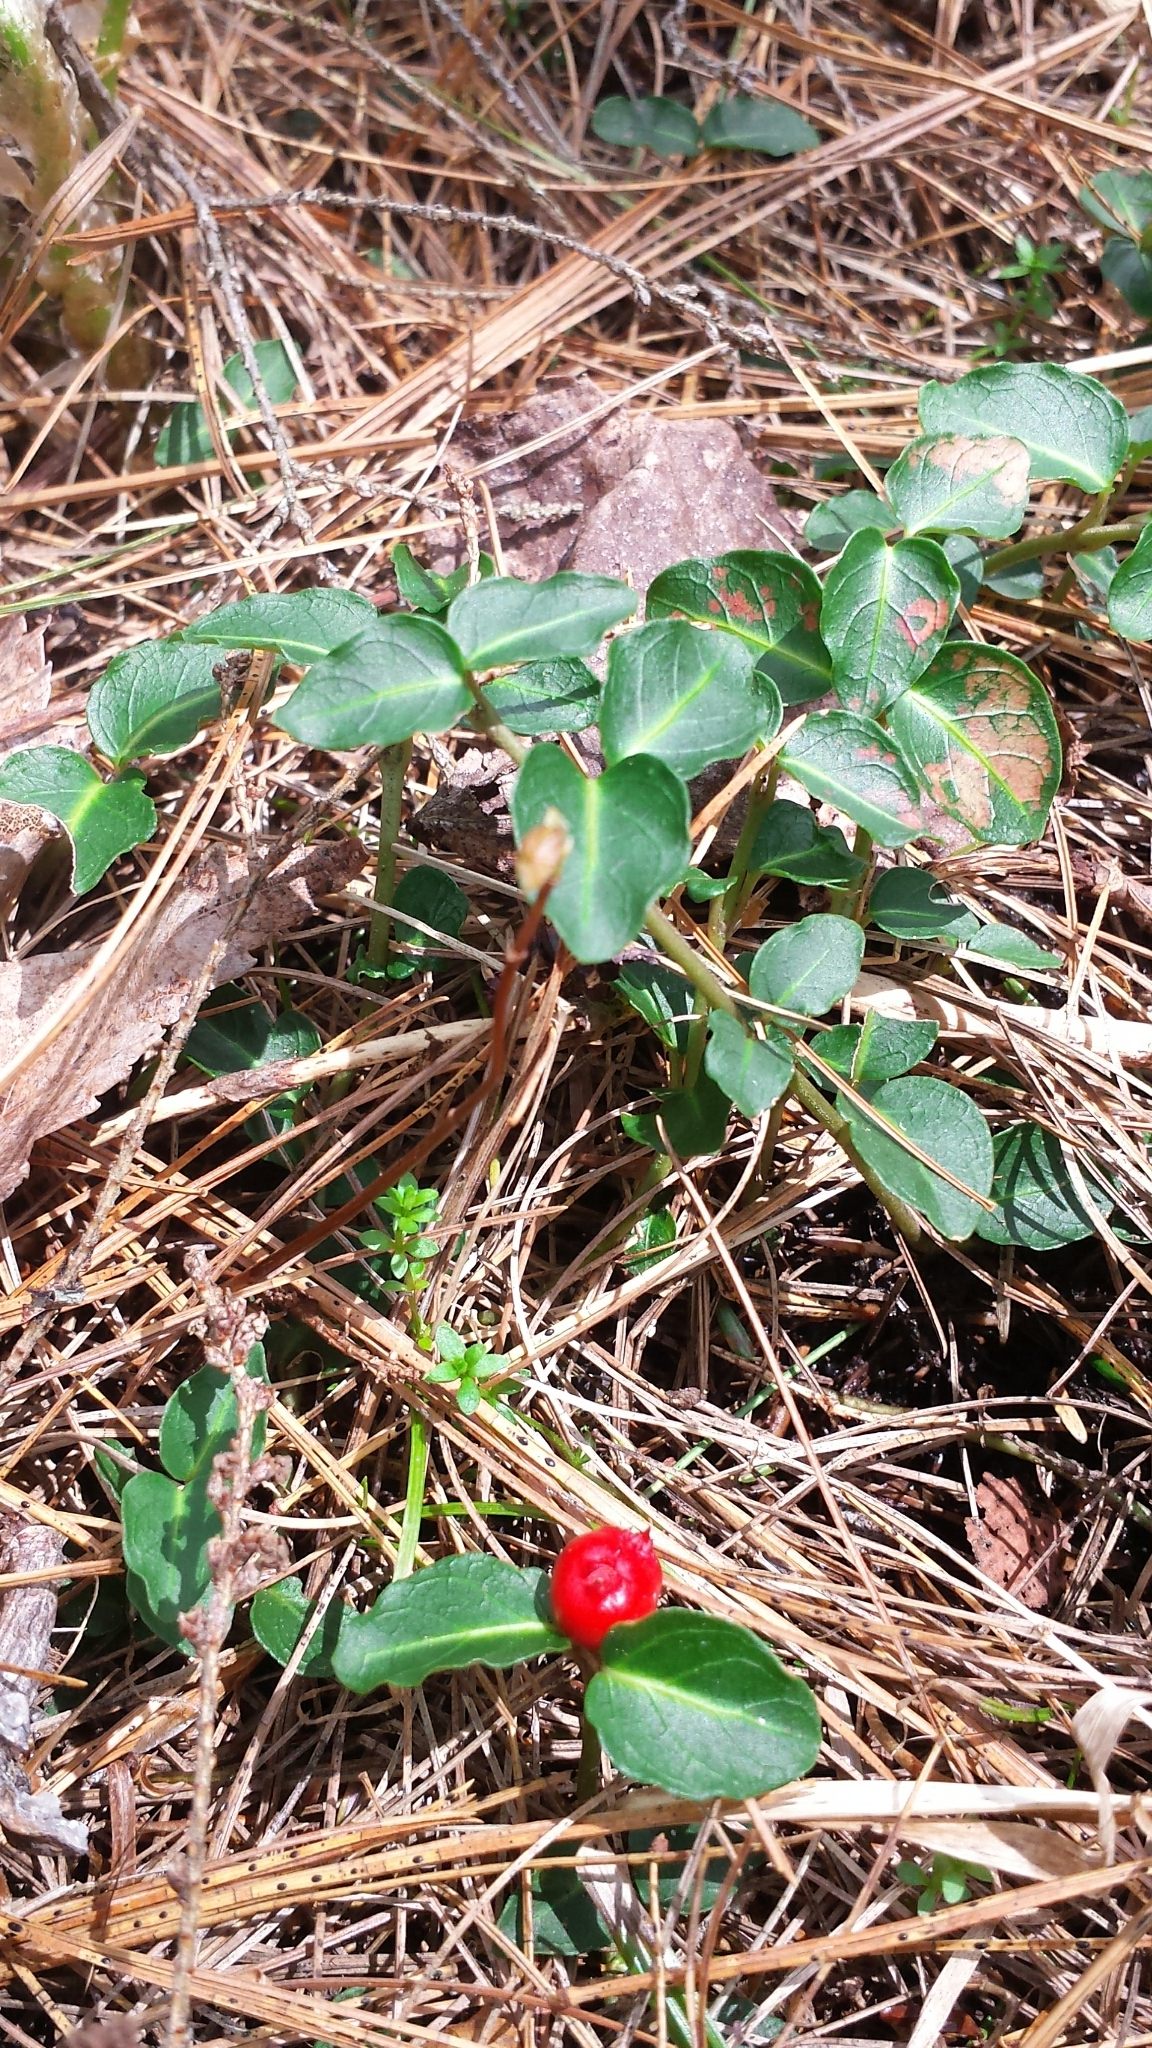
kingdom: Plantae
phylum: Tracheophyta
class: Magnoliopsida
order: Gentianales
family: Rubiaceae
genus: Mitchella
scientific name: Mitchella repens
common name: Partridge-berry
